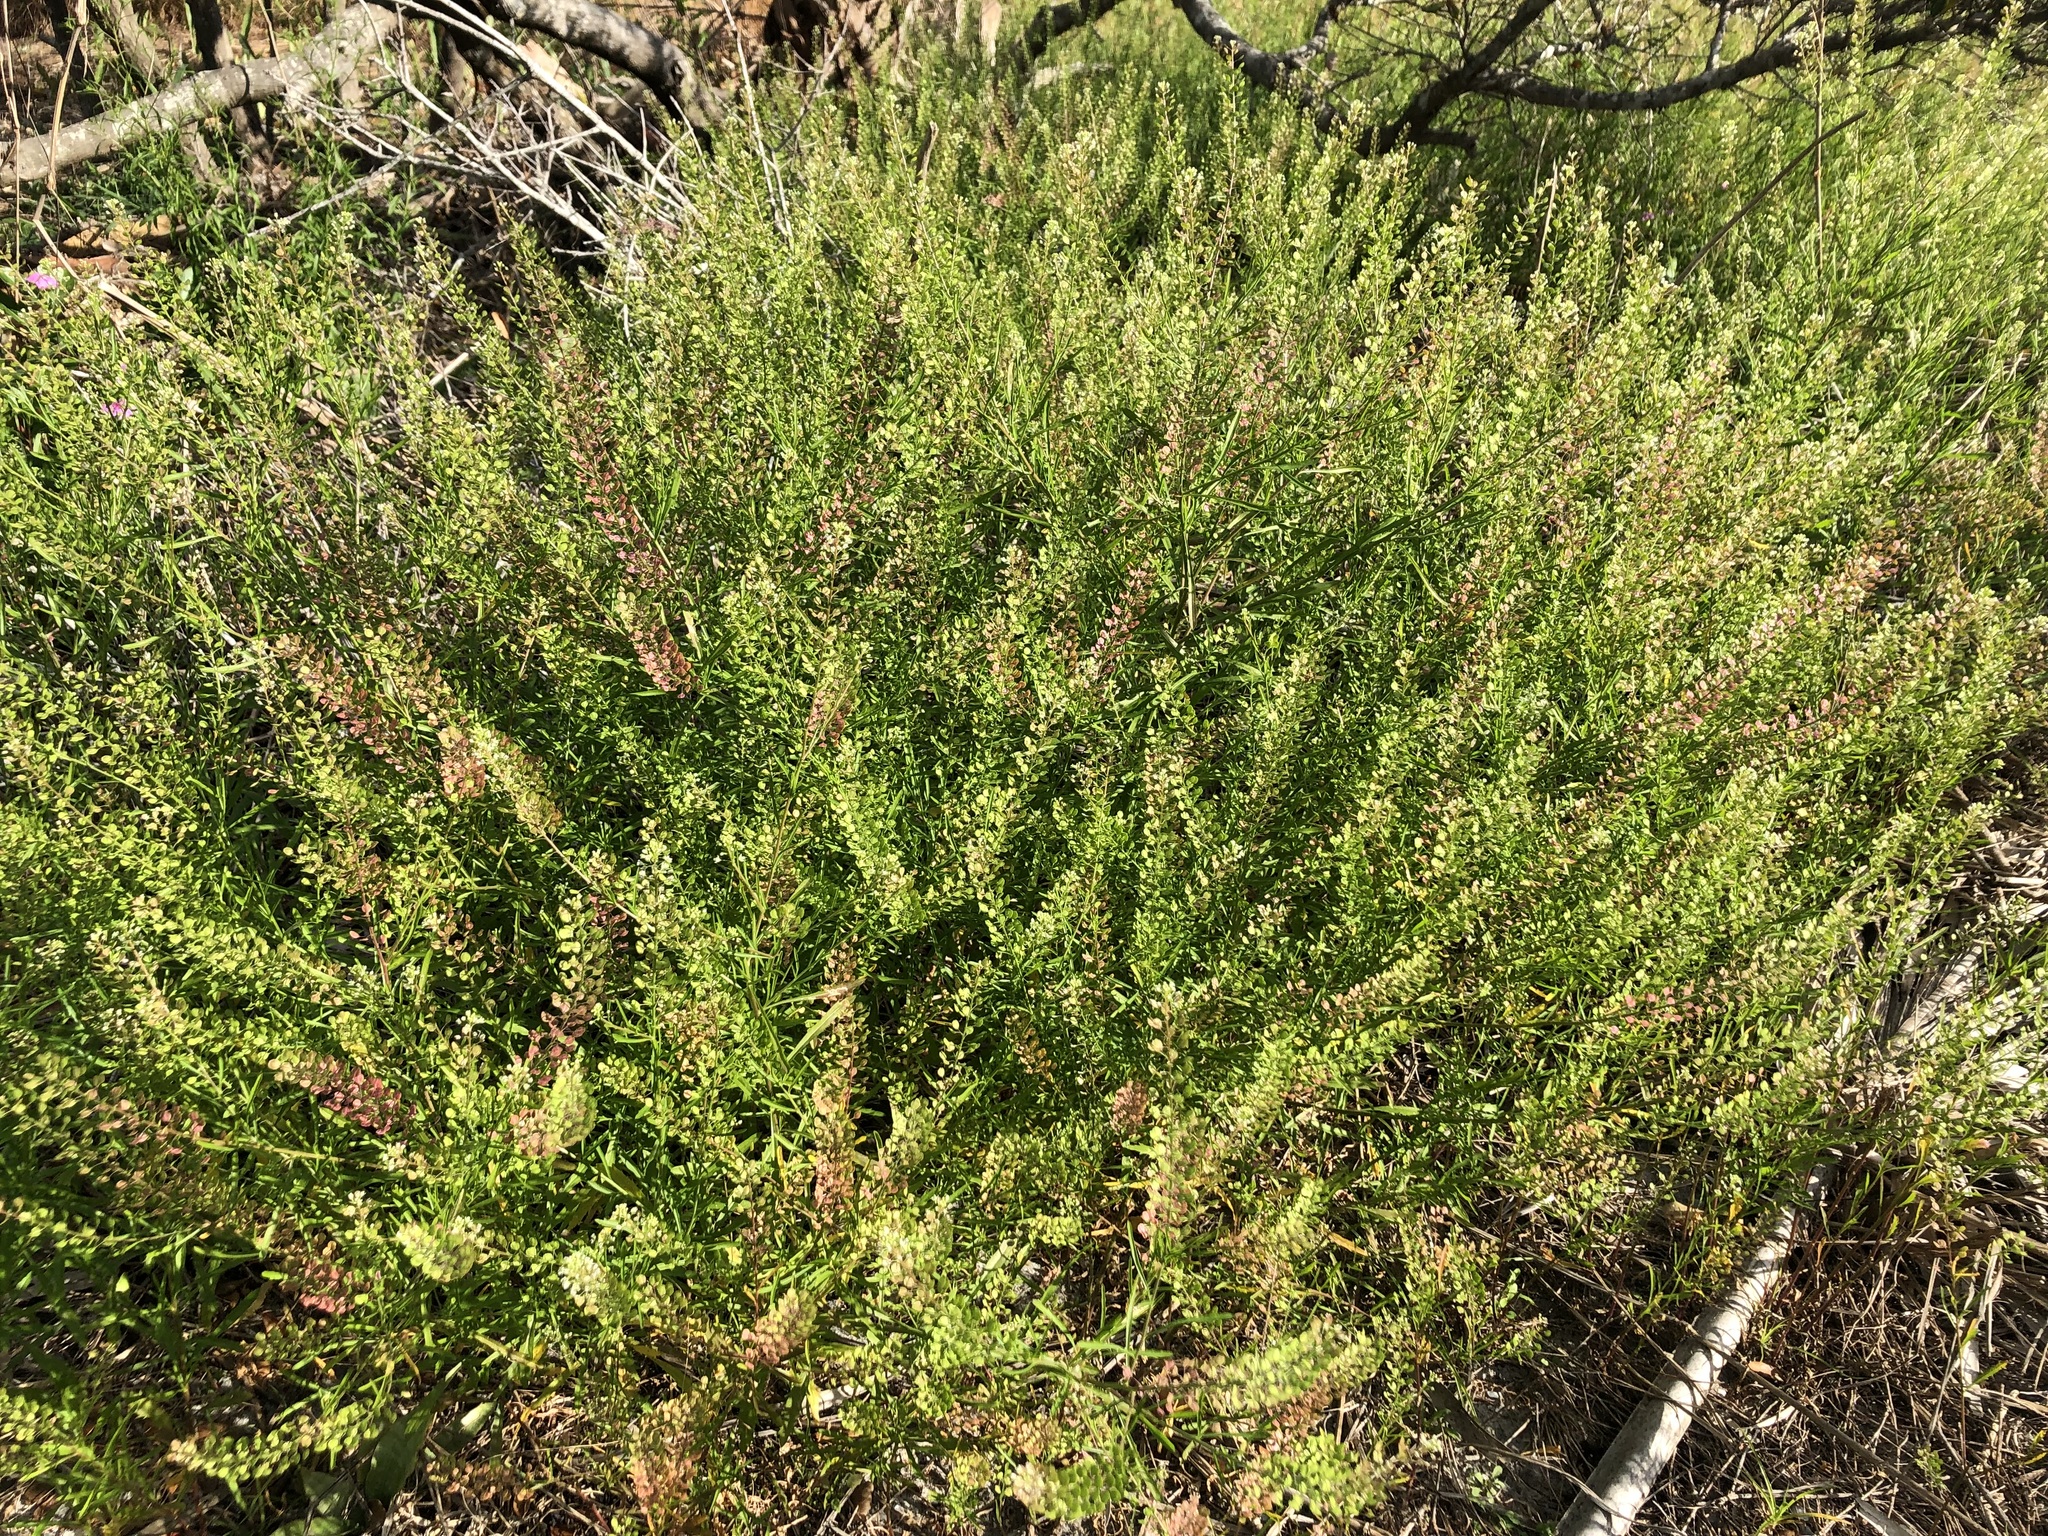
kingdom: Plantae
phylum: Tracheophyta
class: Magnoliopsida
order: Brassicales
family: Brassicaceae
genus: Lepidium
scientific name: Lepidium virginicum
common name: Least pepperwort
